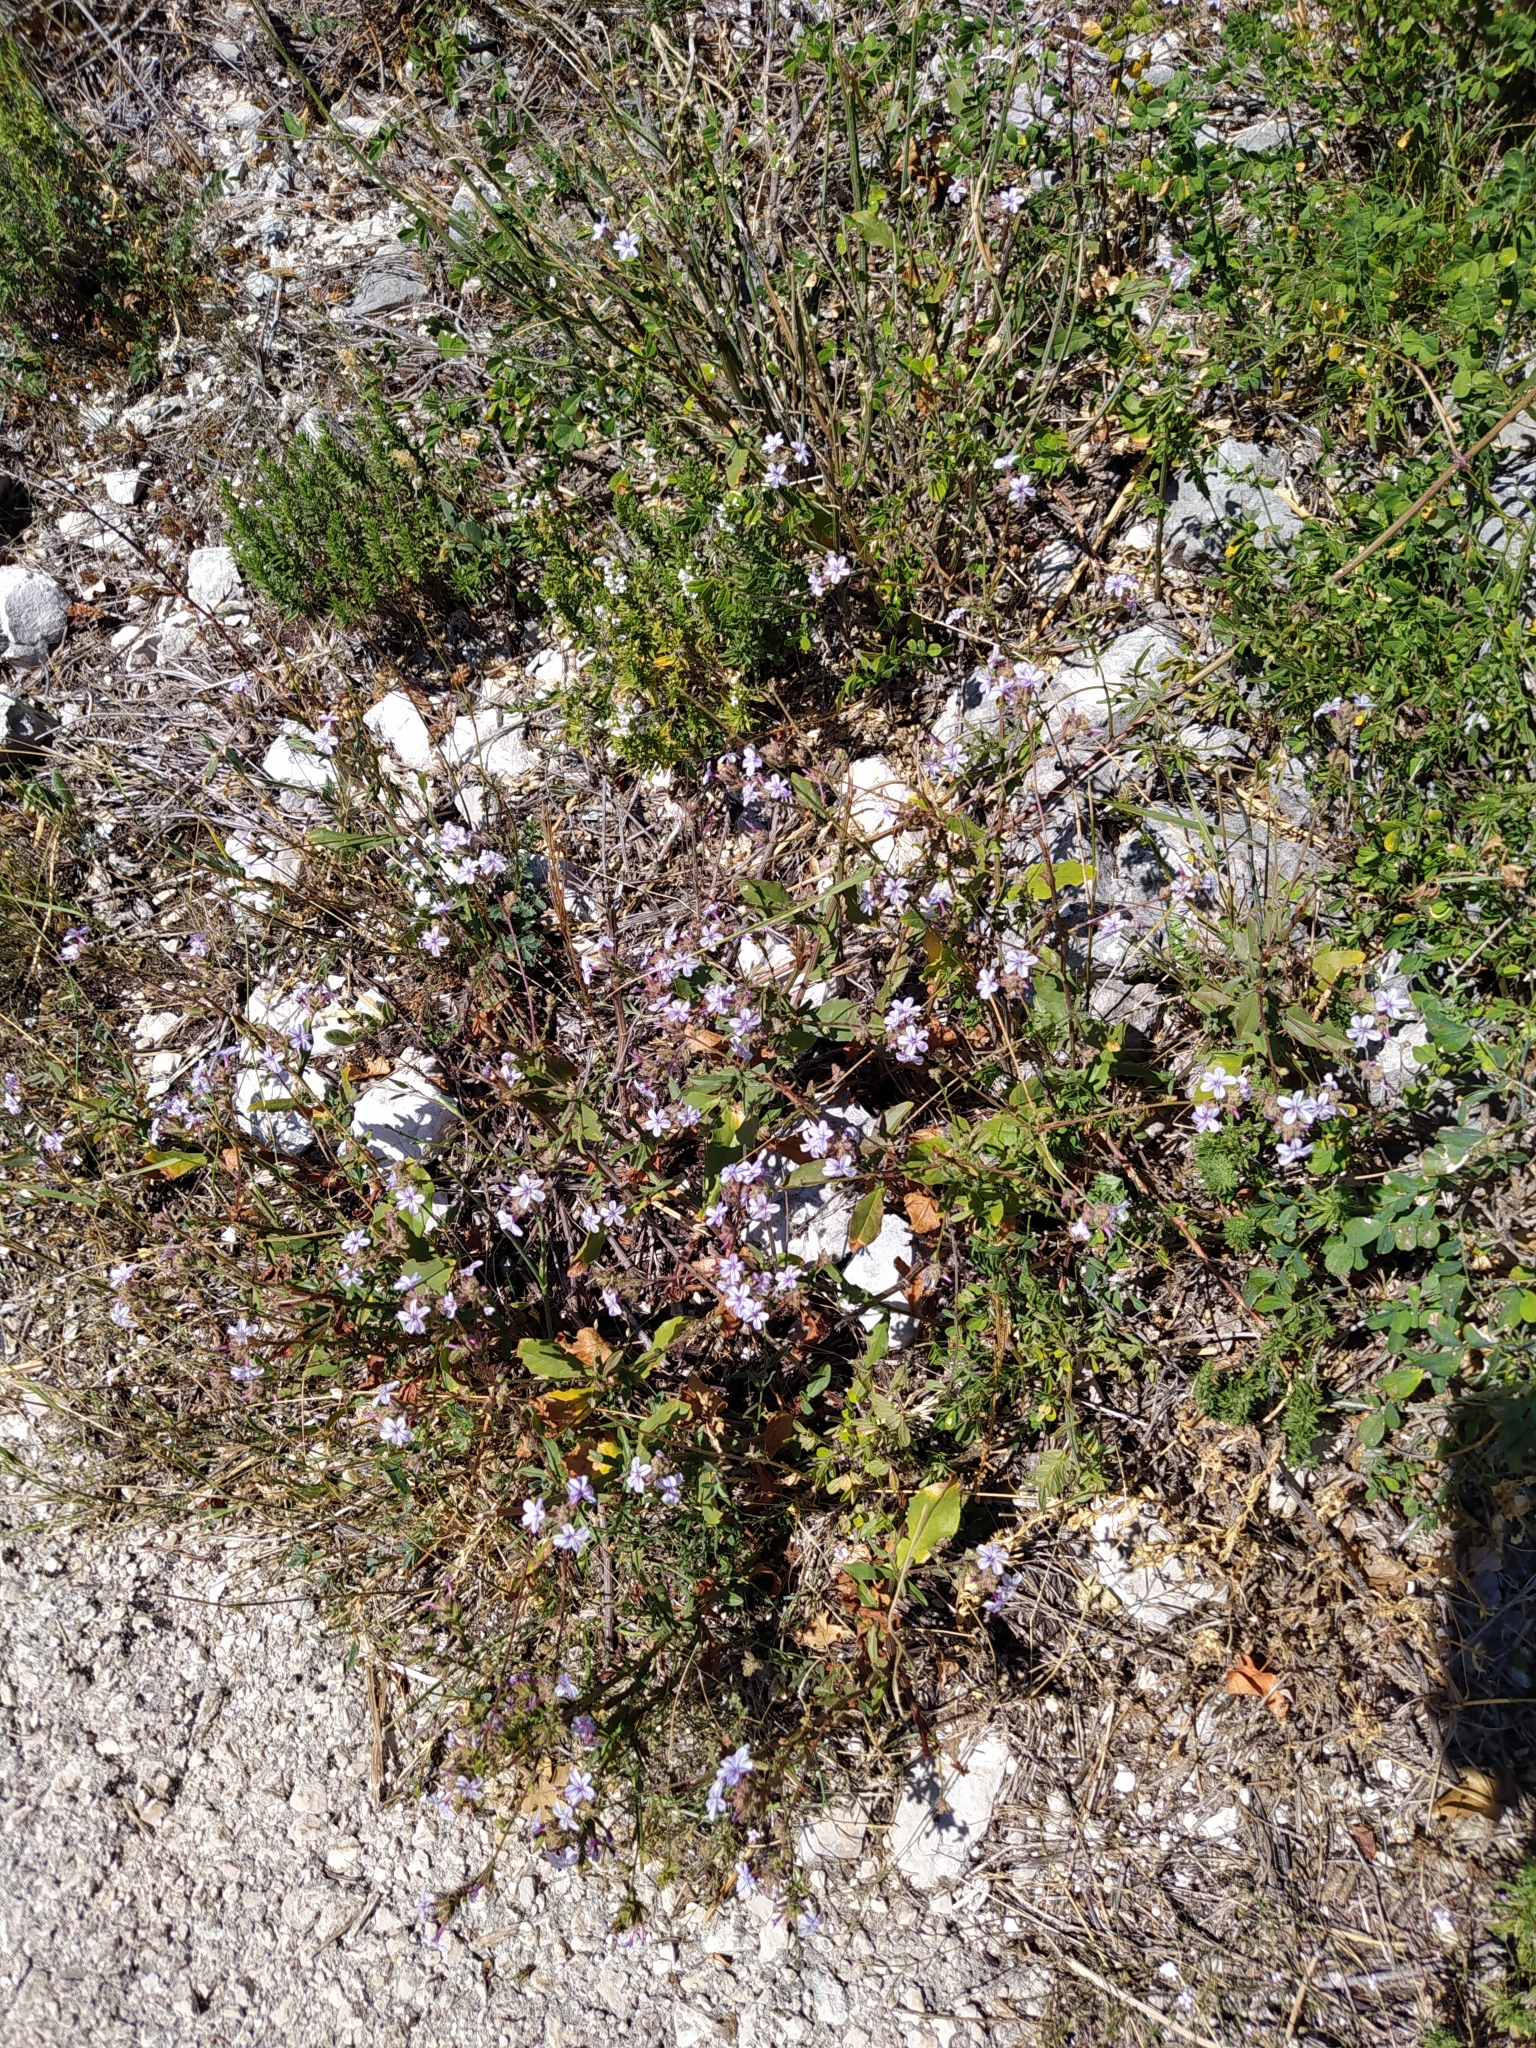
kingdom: Plantae
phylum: Tracheophyta
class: Magnoliopsida
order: Caryophyllales
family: Plumbaginaceae
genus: Plumbago
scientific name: Plumbago europaea
